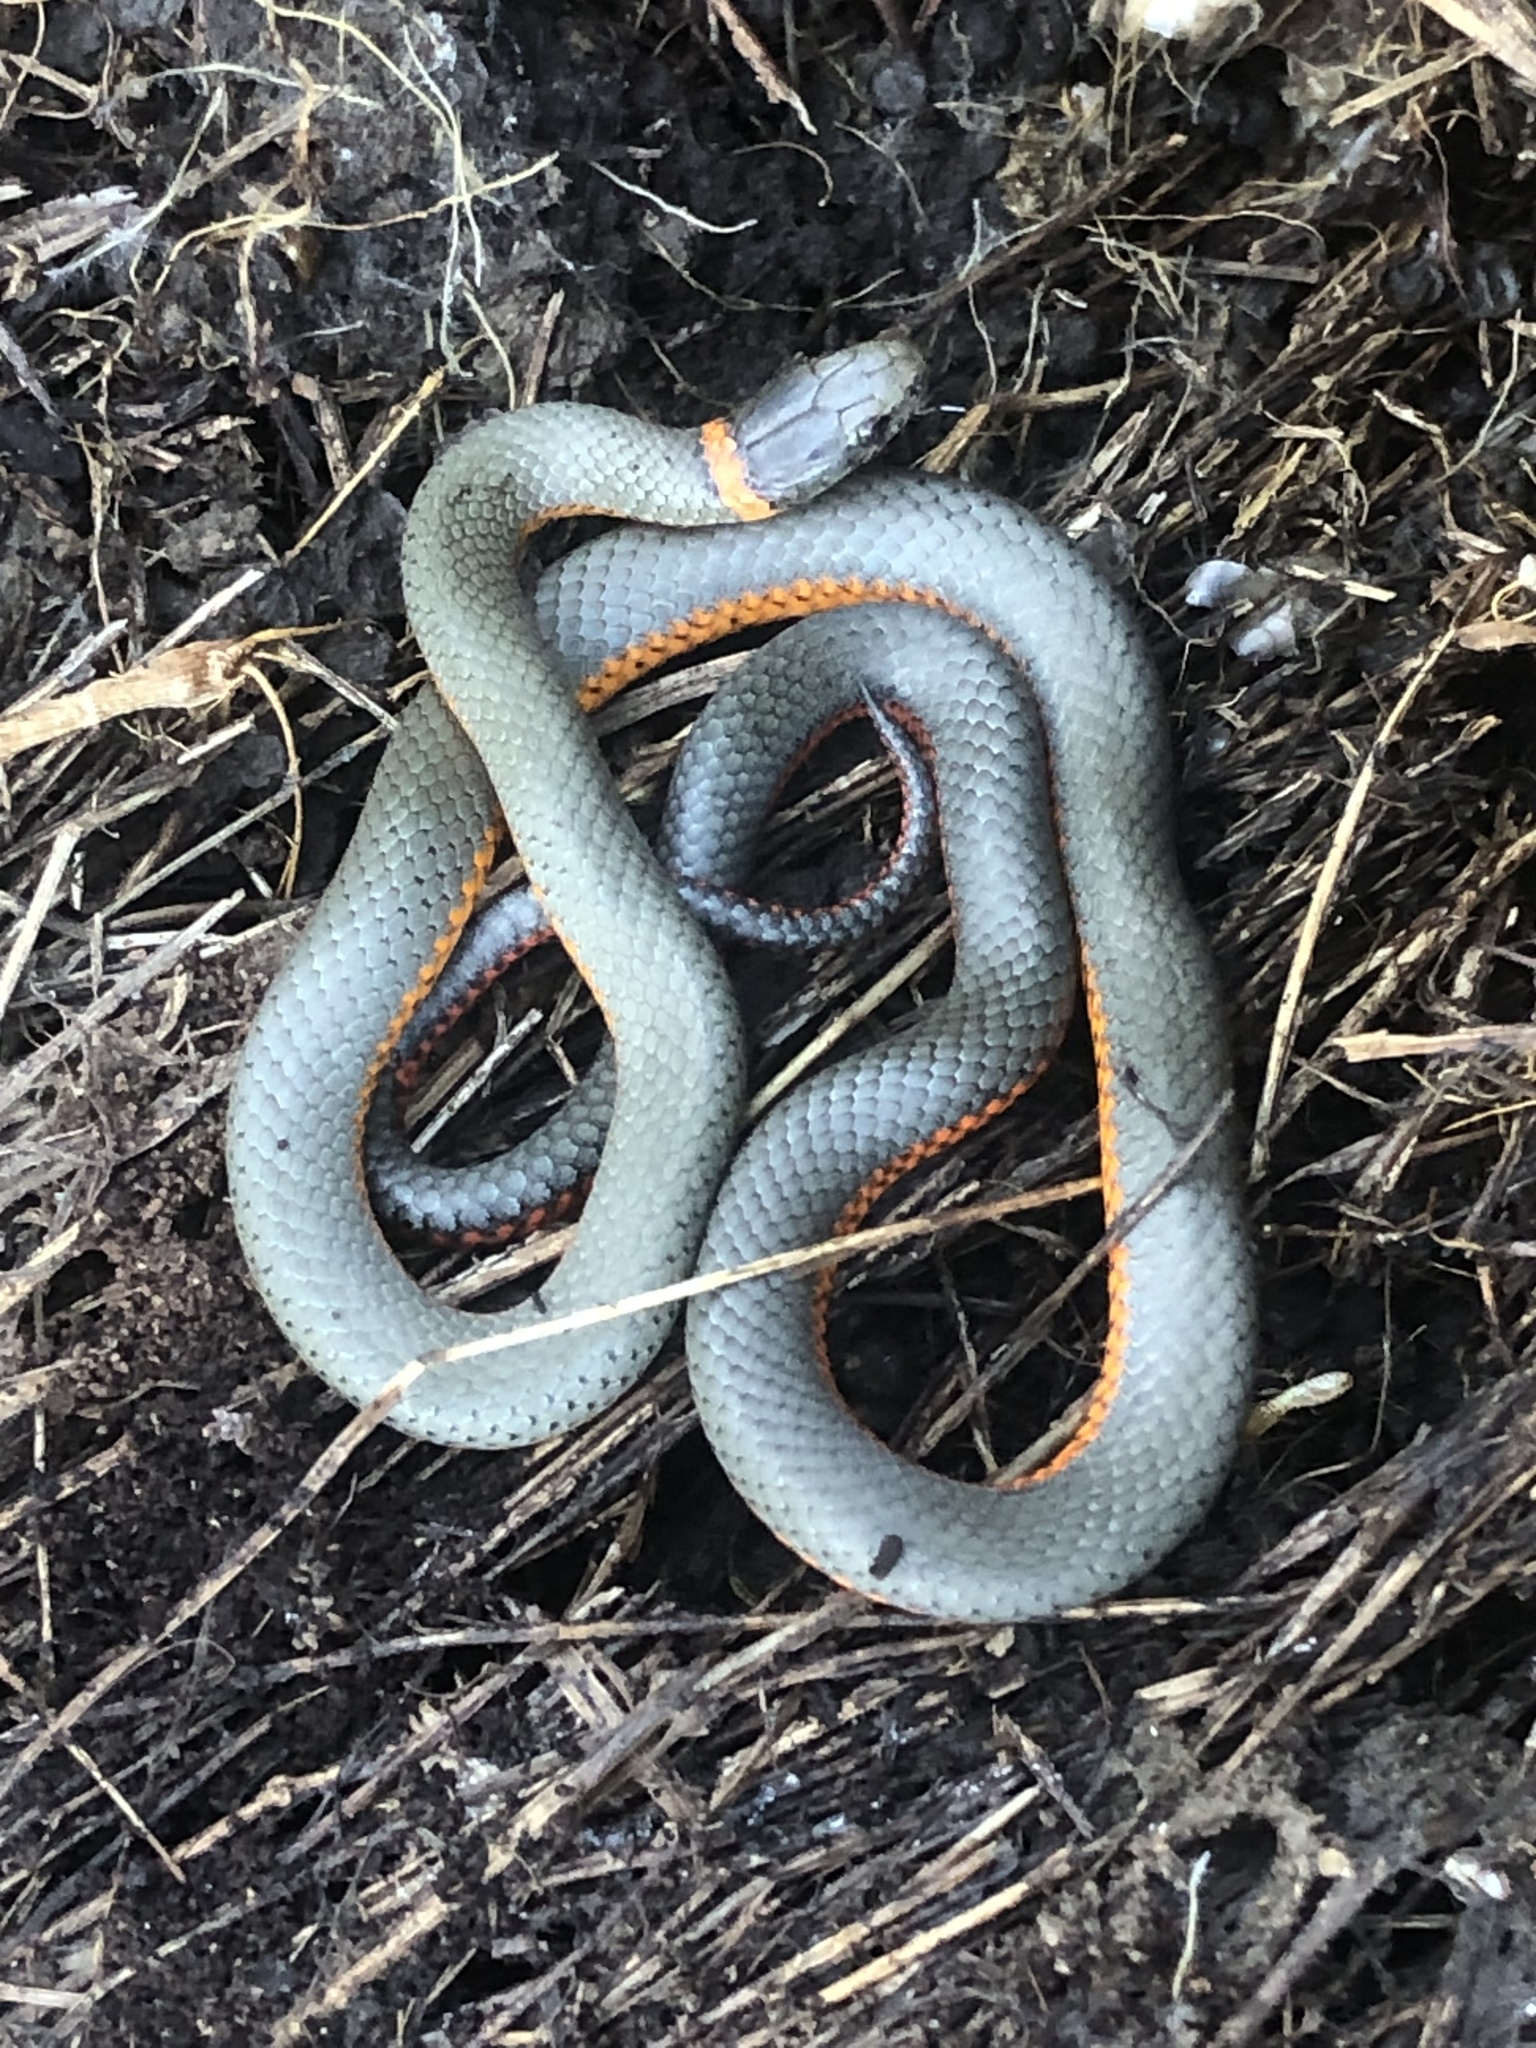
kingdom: Animalia
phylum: Chordata
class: Squamata
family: Colubridae
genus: Diadophis
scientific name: Diadophis punctatus
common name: Ringneck snake
